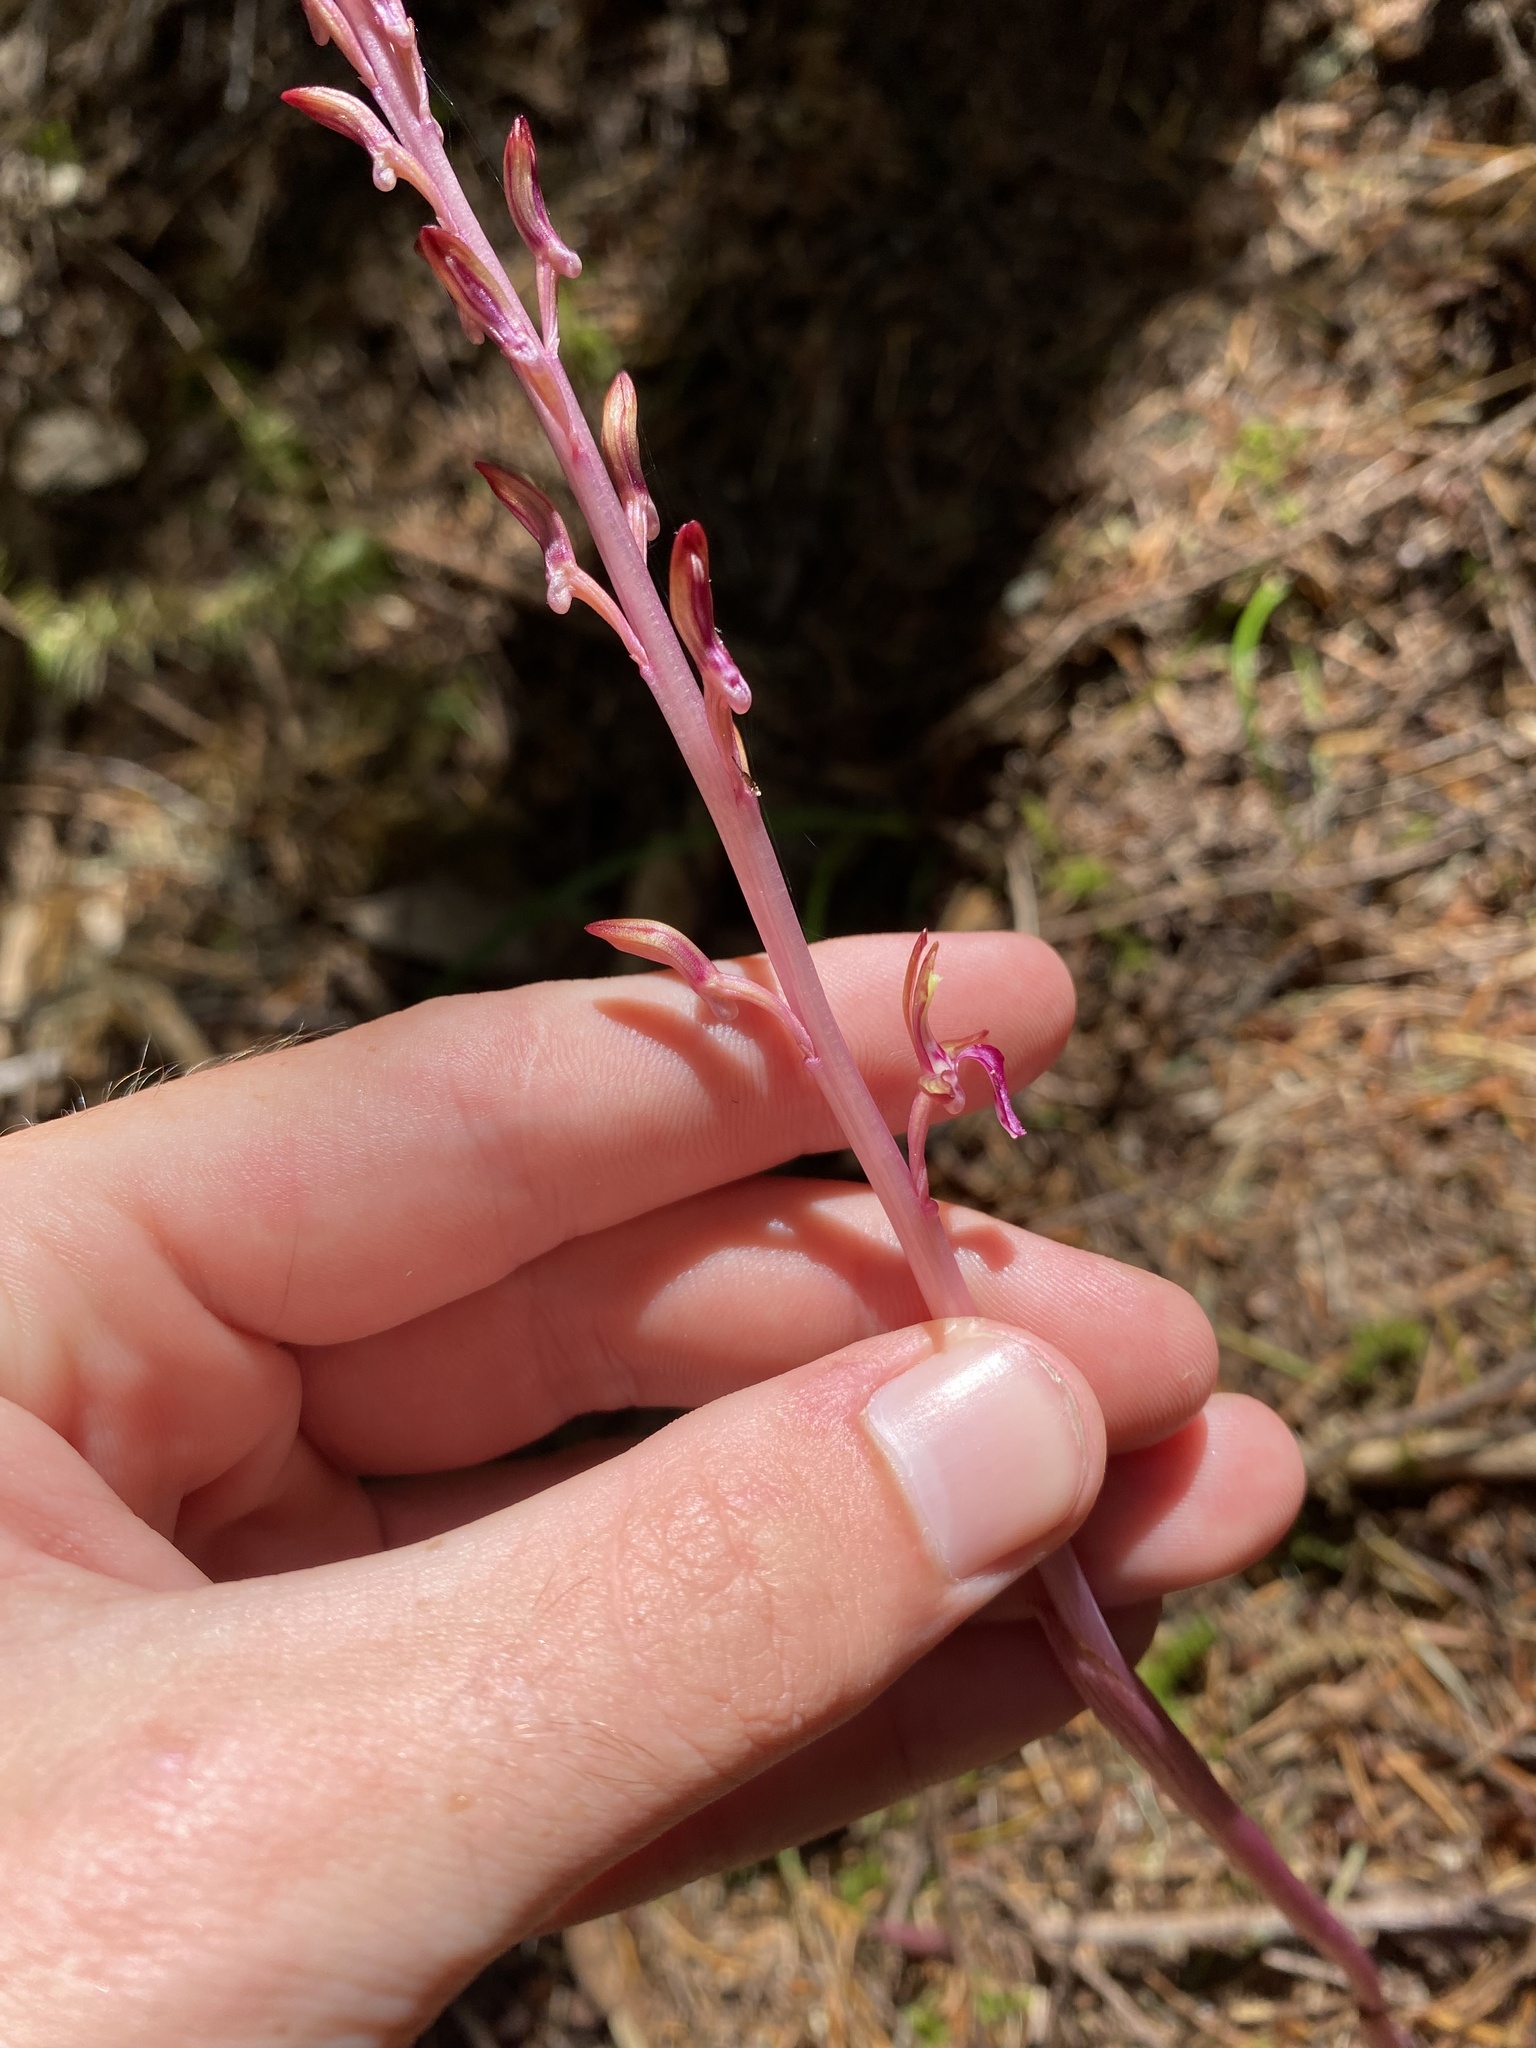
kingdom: Plantae
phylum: Tracheophyta
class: Liliopsida
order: Asparagales
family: Orchidaceae
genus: Corallorhiza
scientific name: Corallorhiza mertensiana
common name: Pacific coralroot
